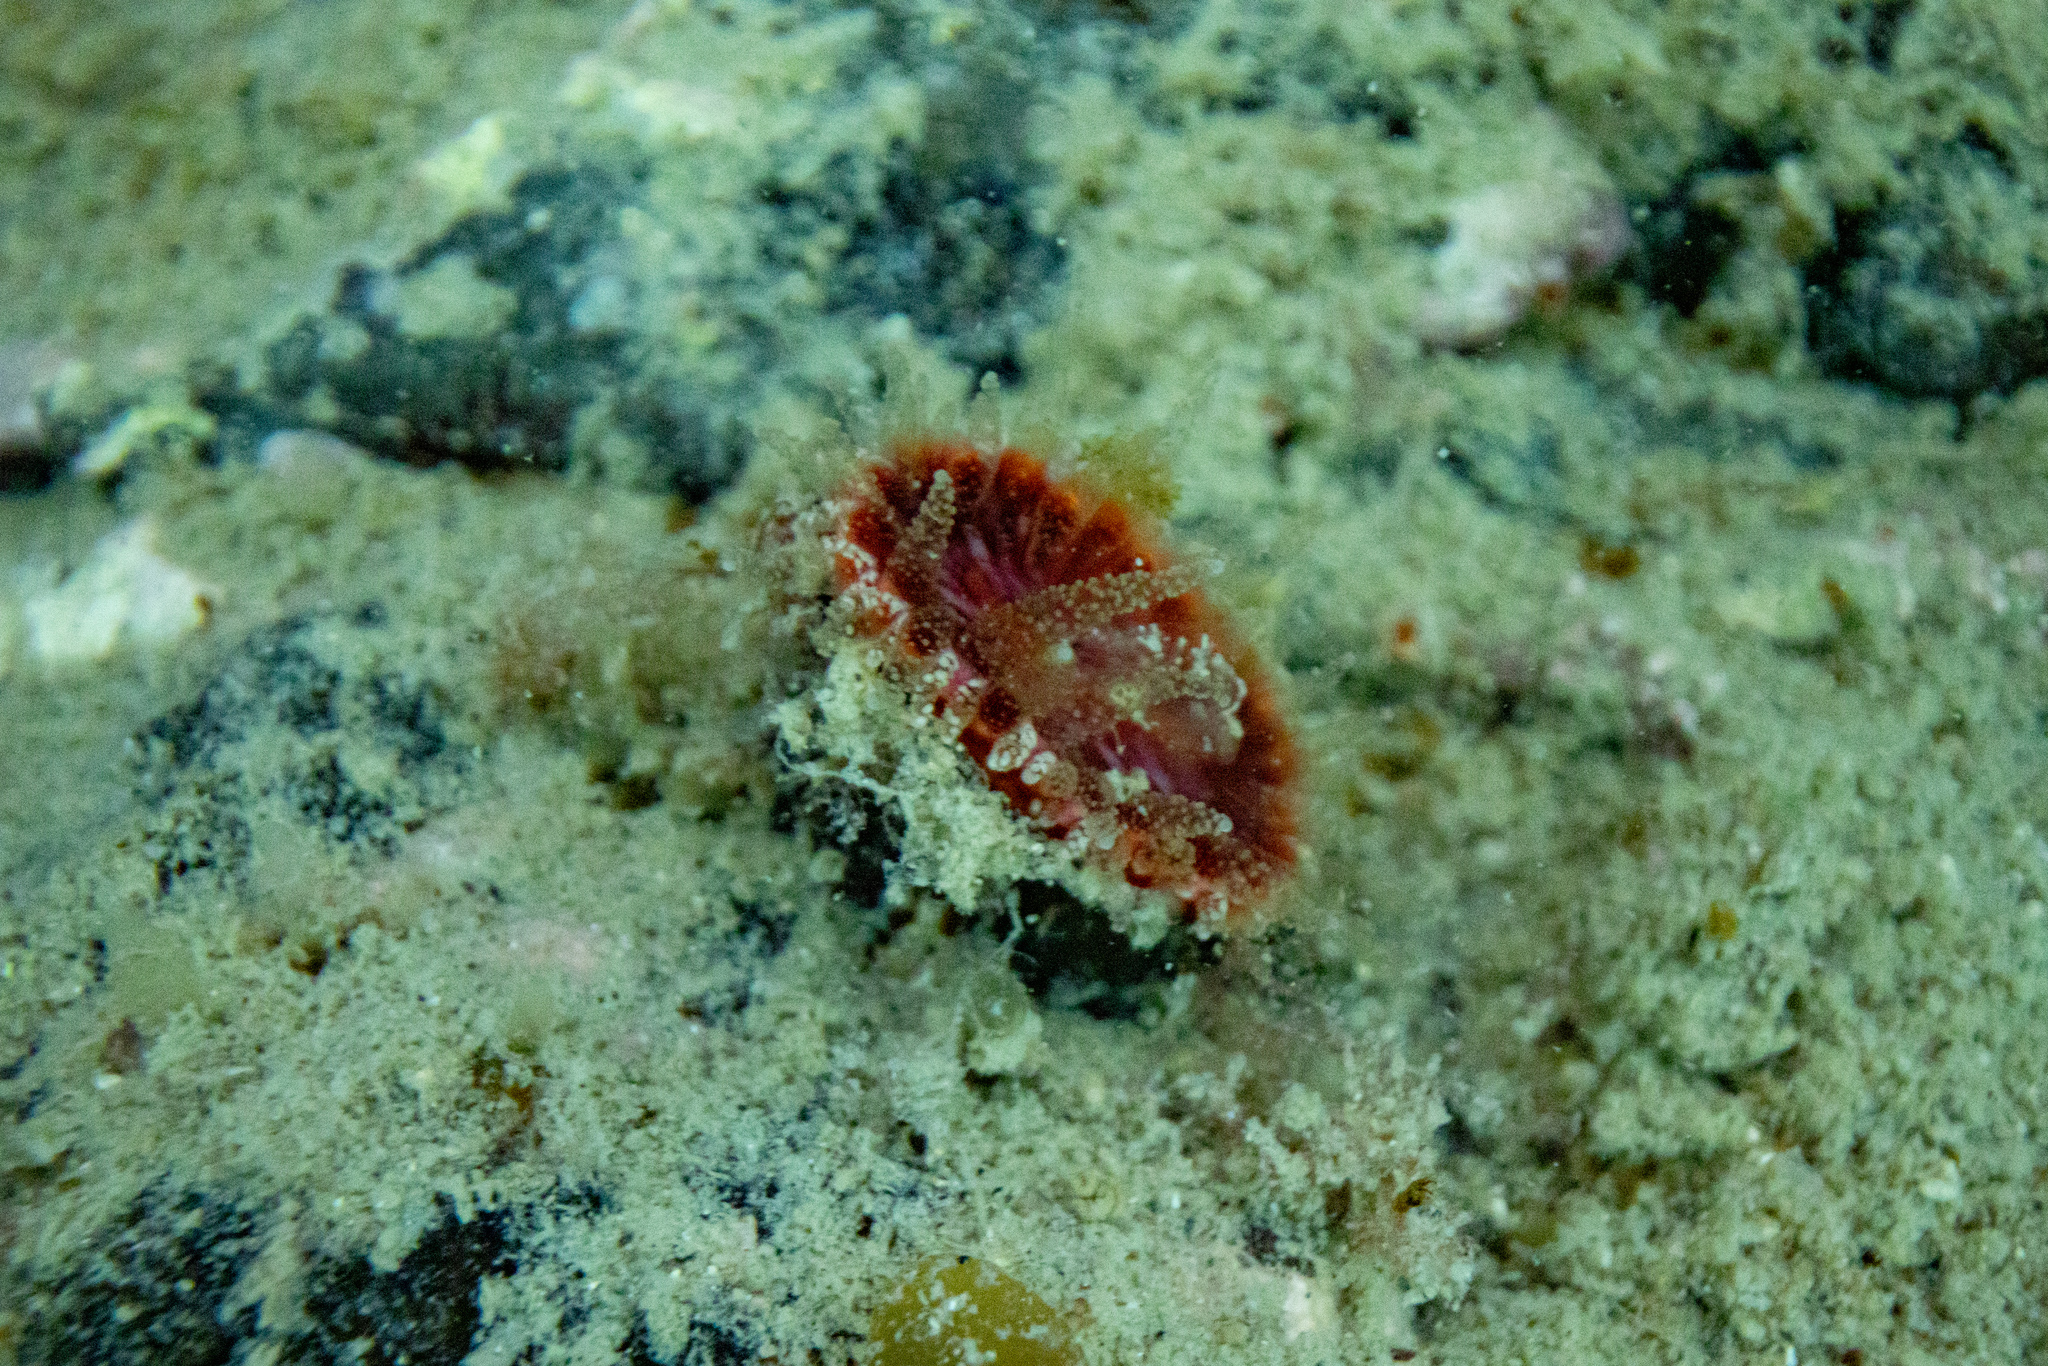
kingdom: Animalia
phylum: Cnidaria
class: Anthozoa
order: Scleractinia
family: Flabellidae
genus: Monomyces
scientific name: Monomyces rubrum
